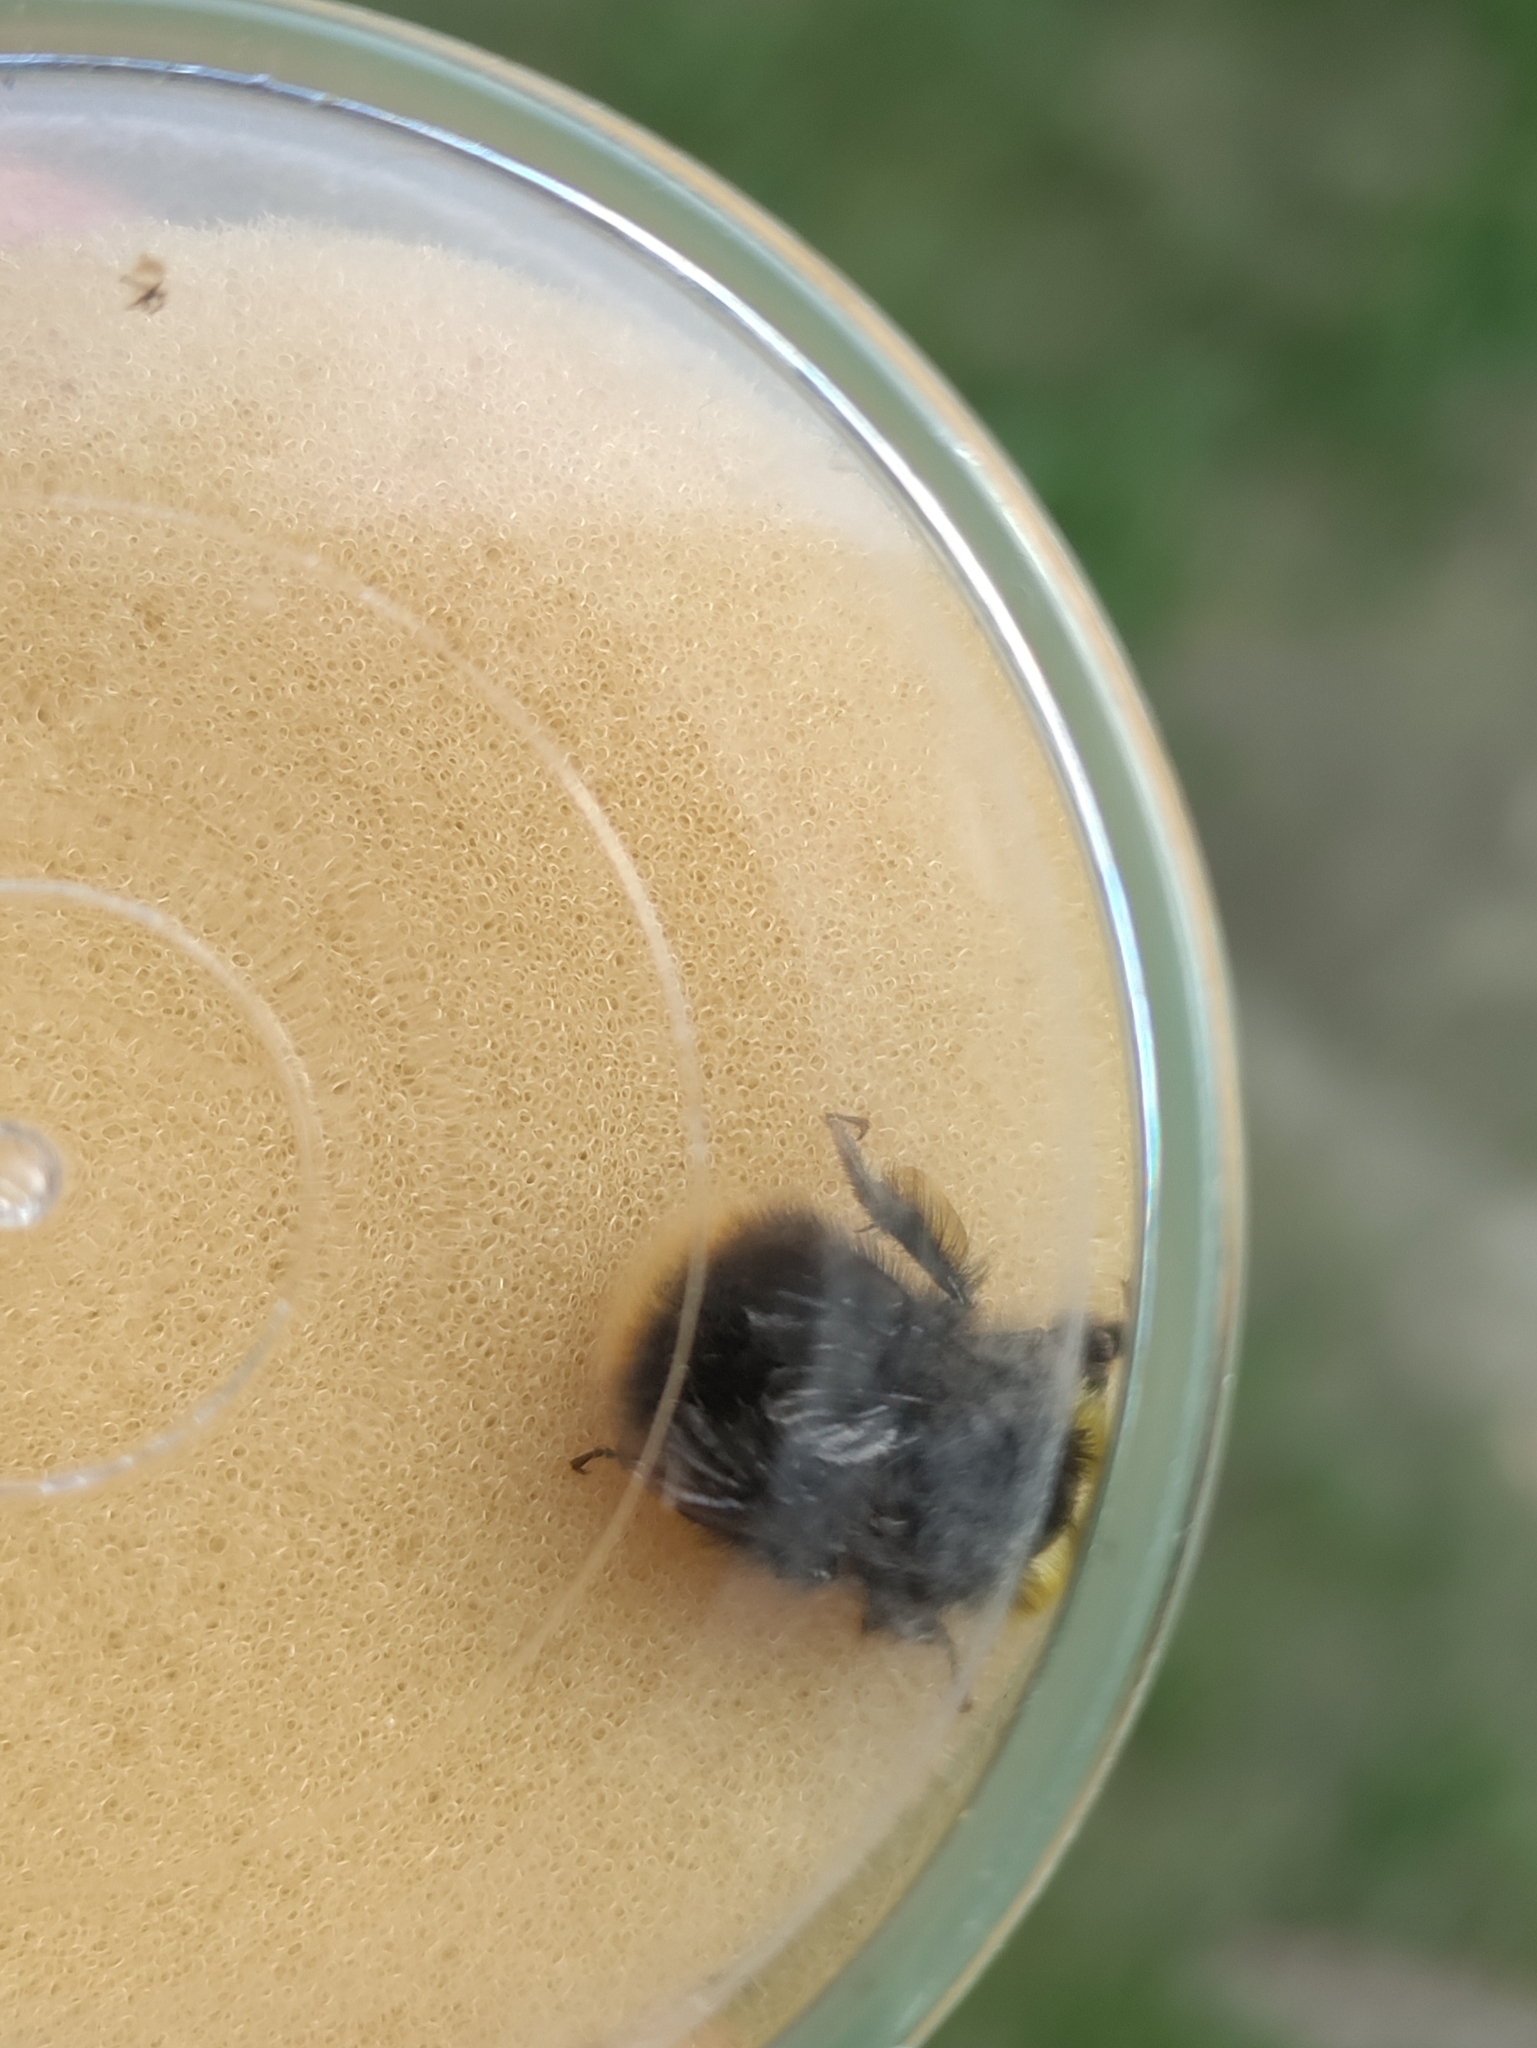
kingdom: Animalia
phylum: Arthropoda
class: Insecta
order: Hymenoptera
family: Apidae
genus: Bombus
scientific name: Bombus pratorum
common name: Early humble-bee
